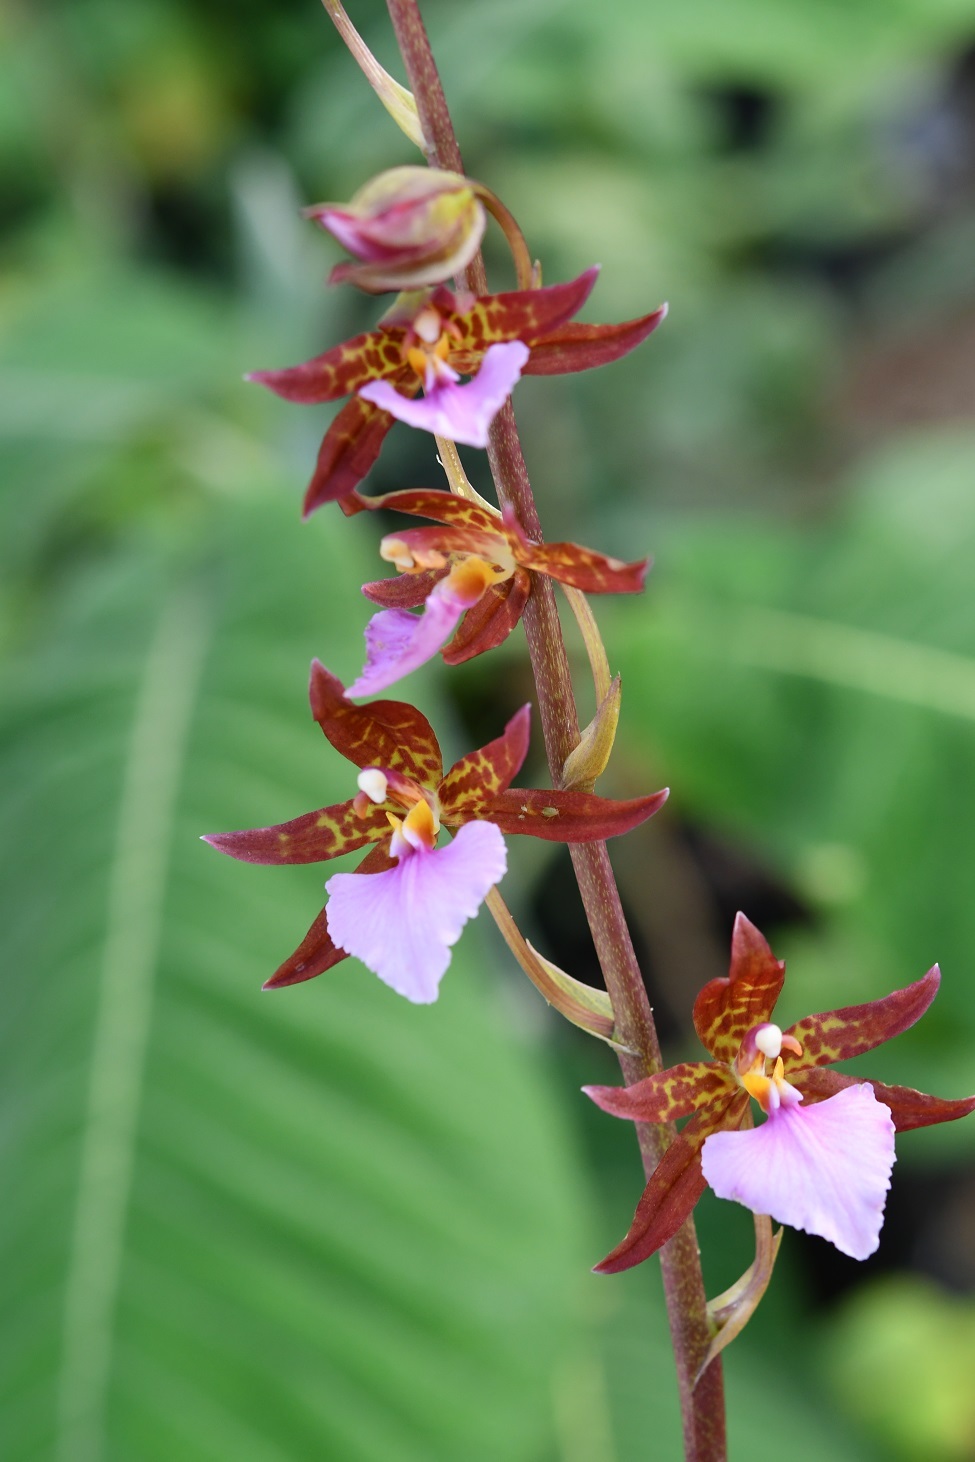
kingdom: Plantae
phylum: Tracheophyta
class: Liliopsida
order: Asparagales
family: Orchidaceae
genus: Rhynchostele
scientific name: Rhynchostele bictoniensis
